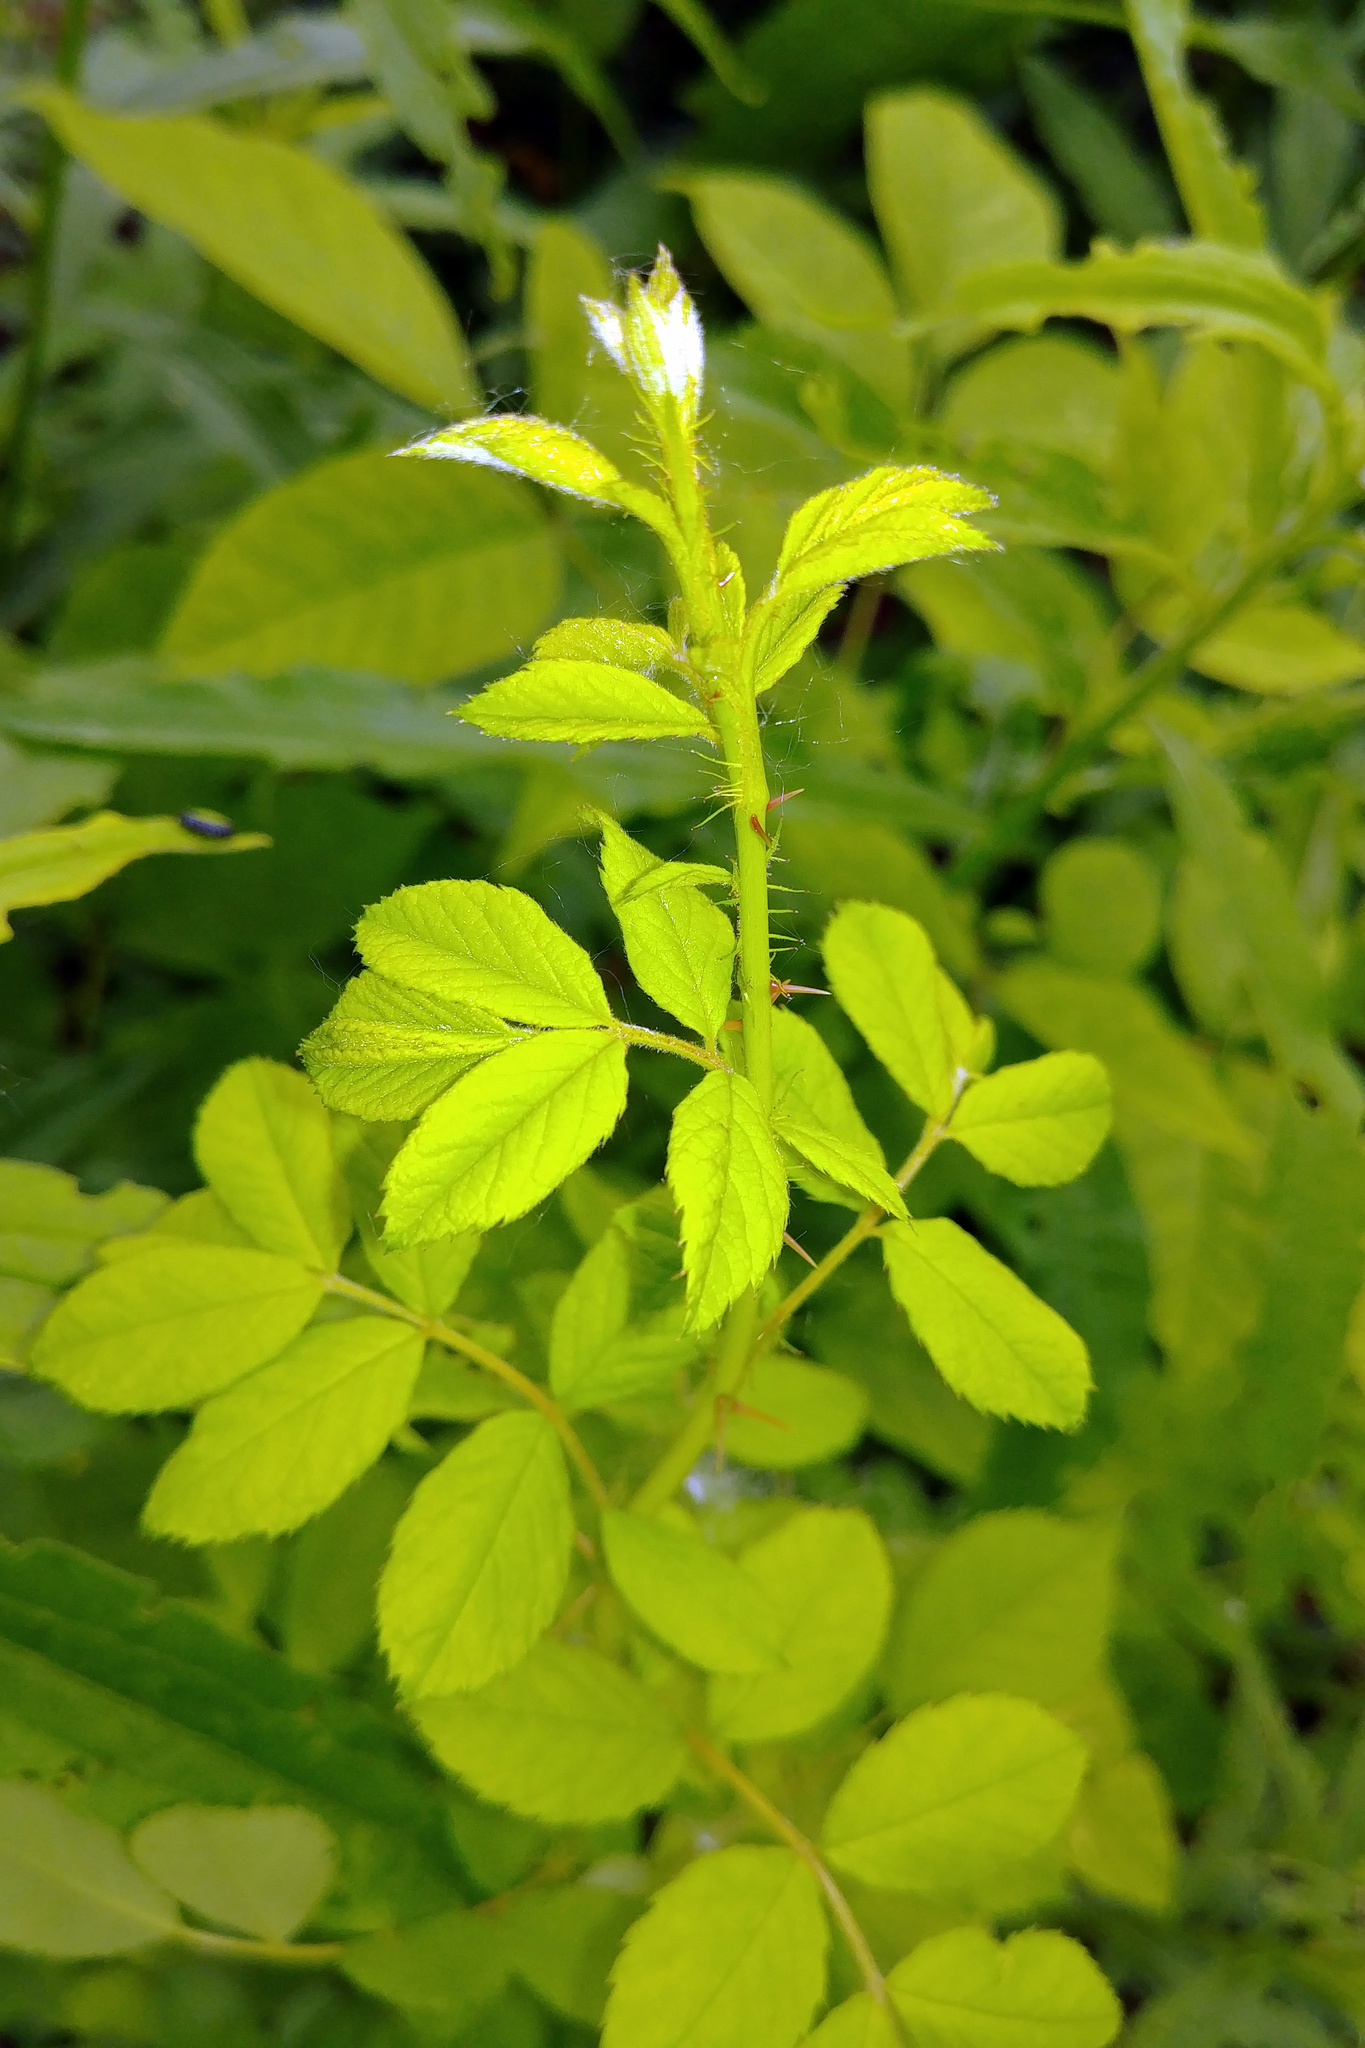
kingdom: Plantae
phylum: Tracheophyta
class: Magnoliopsida
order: Rosales
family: Rosaceae
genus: Rosa
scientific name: Rosa multiflora
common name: Multiflora rose
